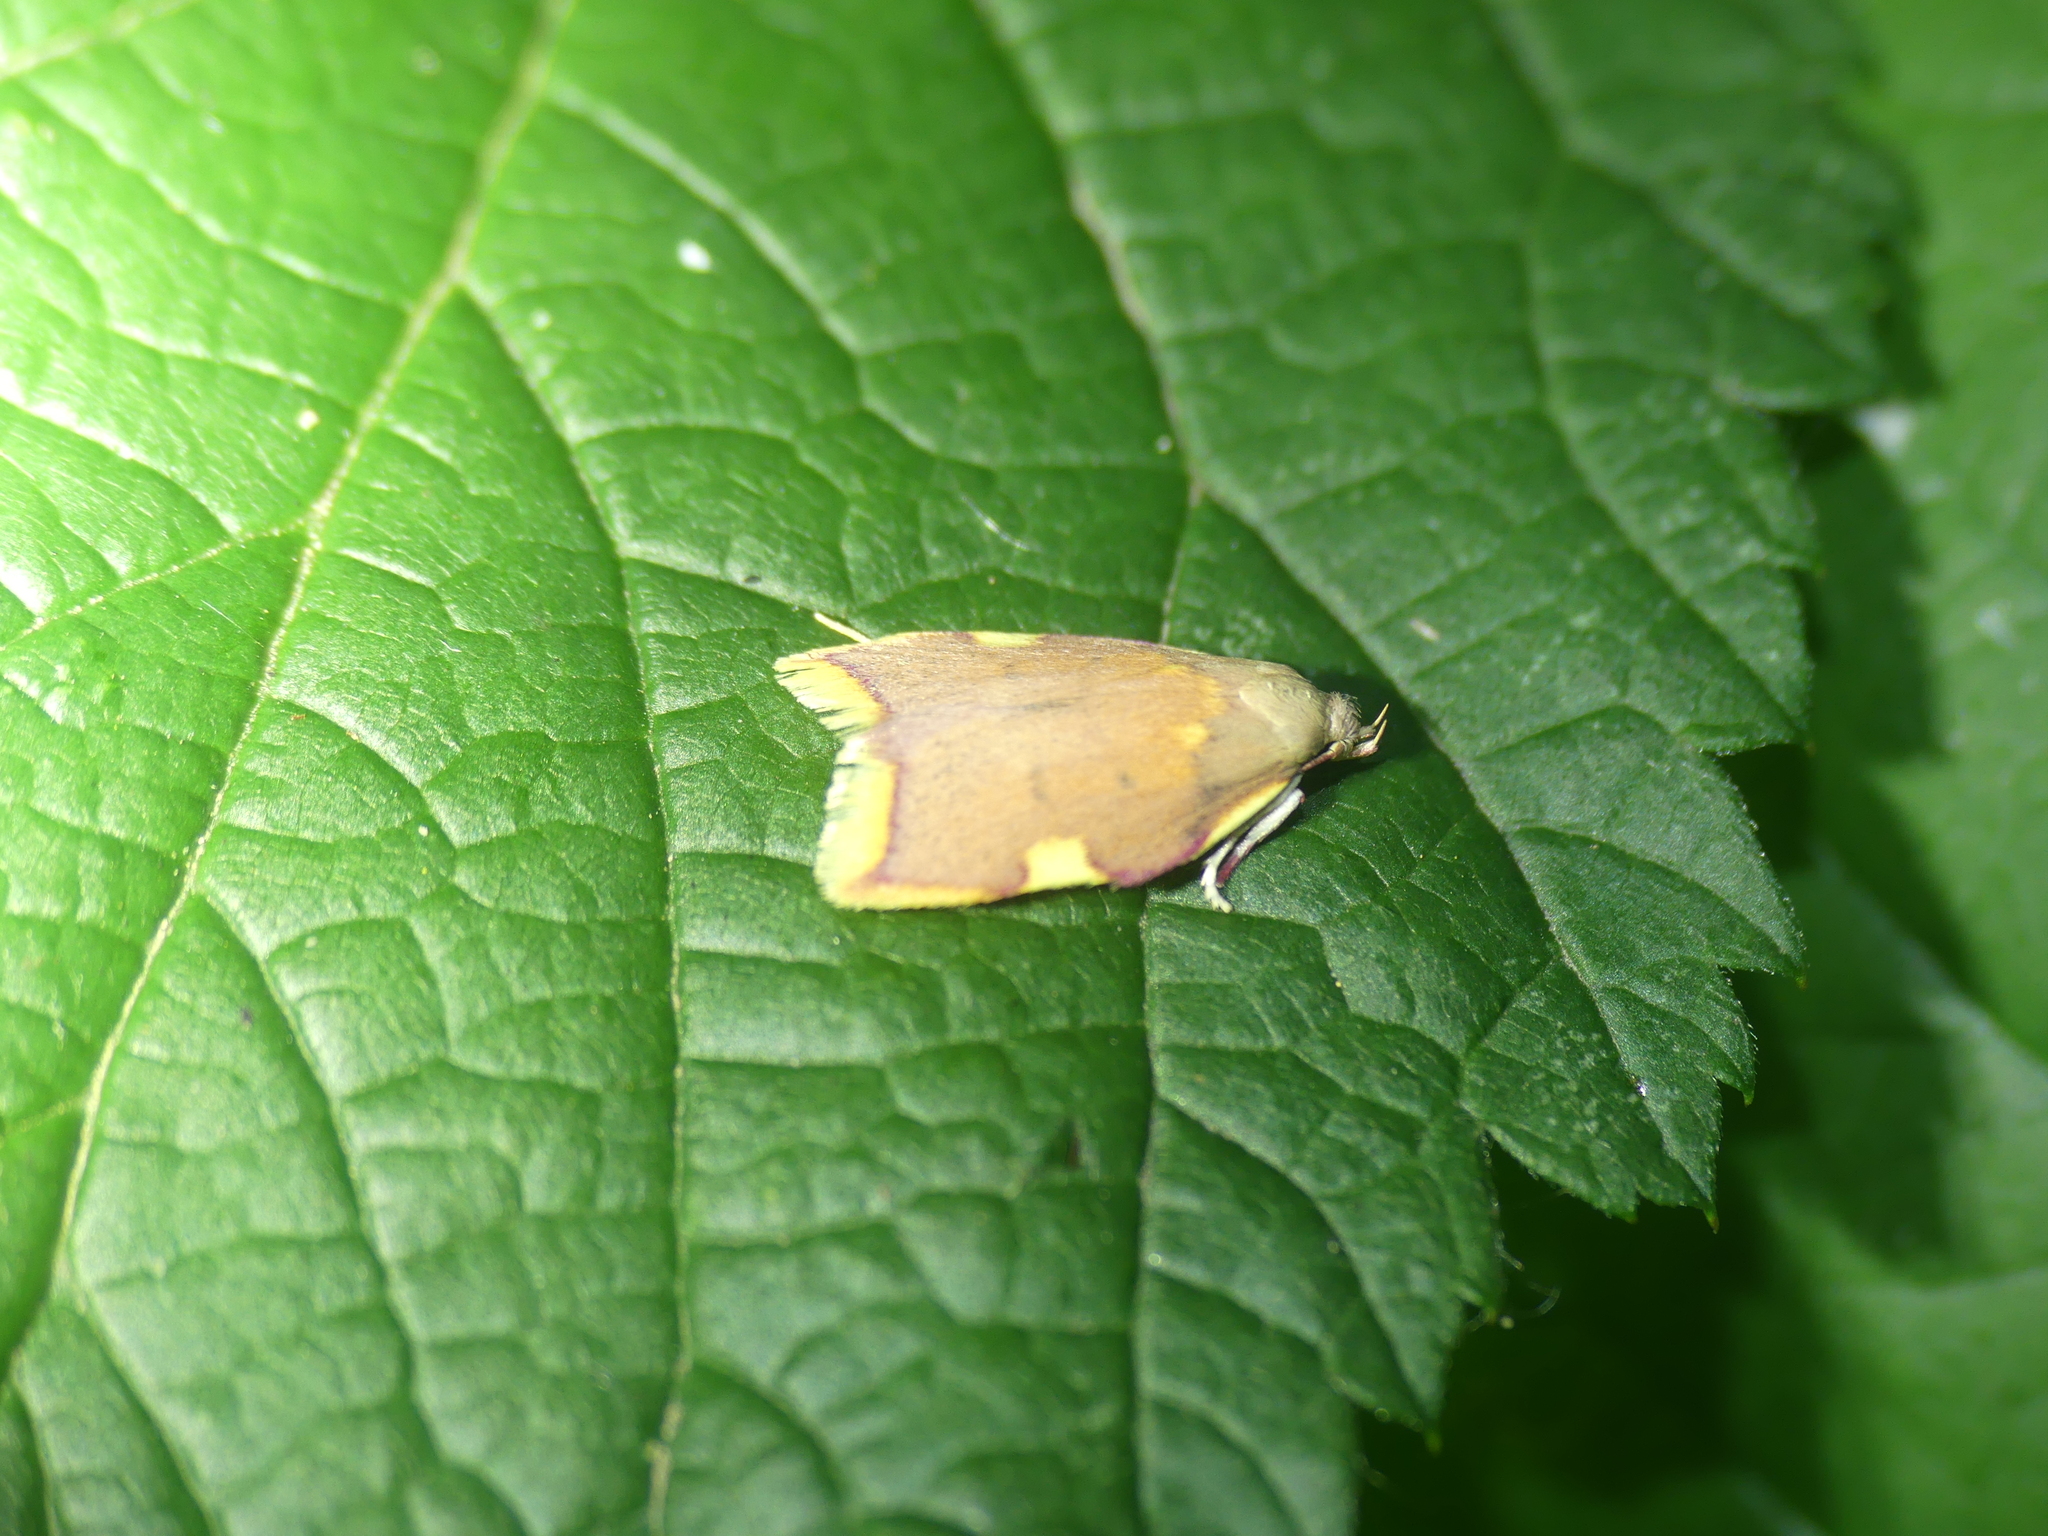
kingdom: Animalia
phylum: Arthropoda
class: Insecta
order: Lepidoptera
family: Peleopodidae
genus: Carcina
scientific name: Carcina quercana
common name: Moth
